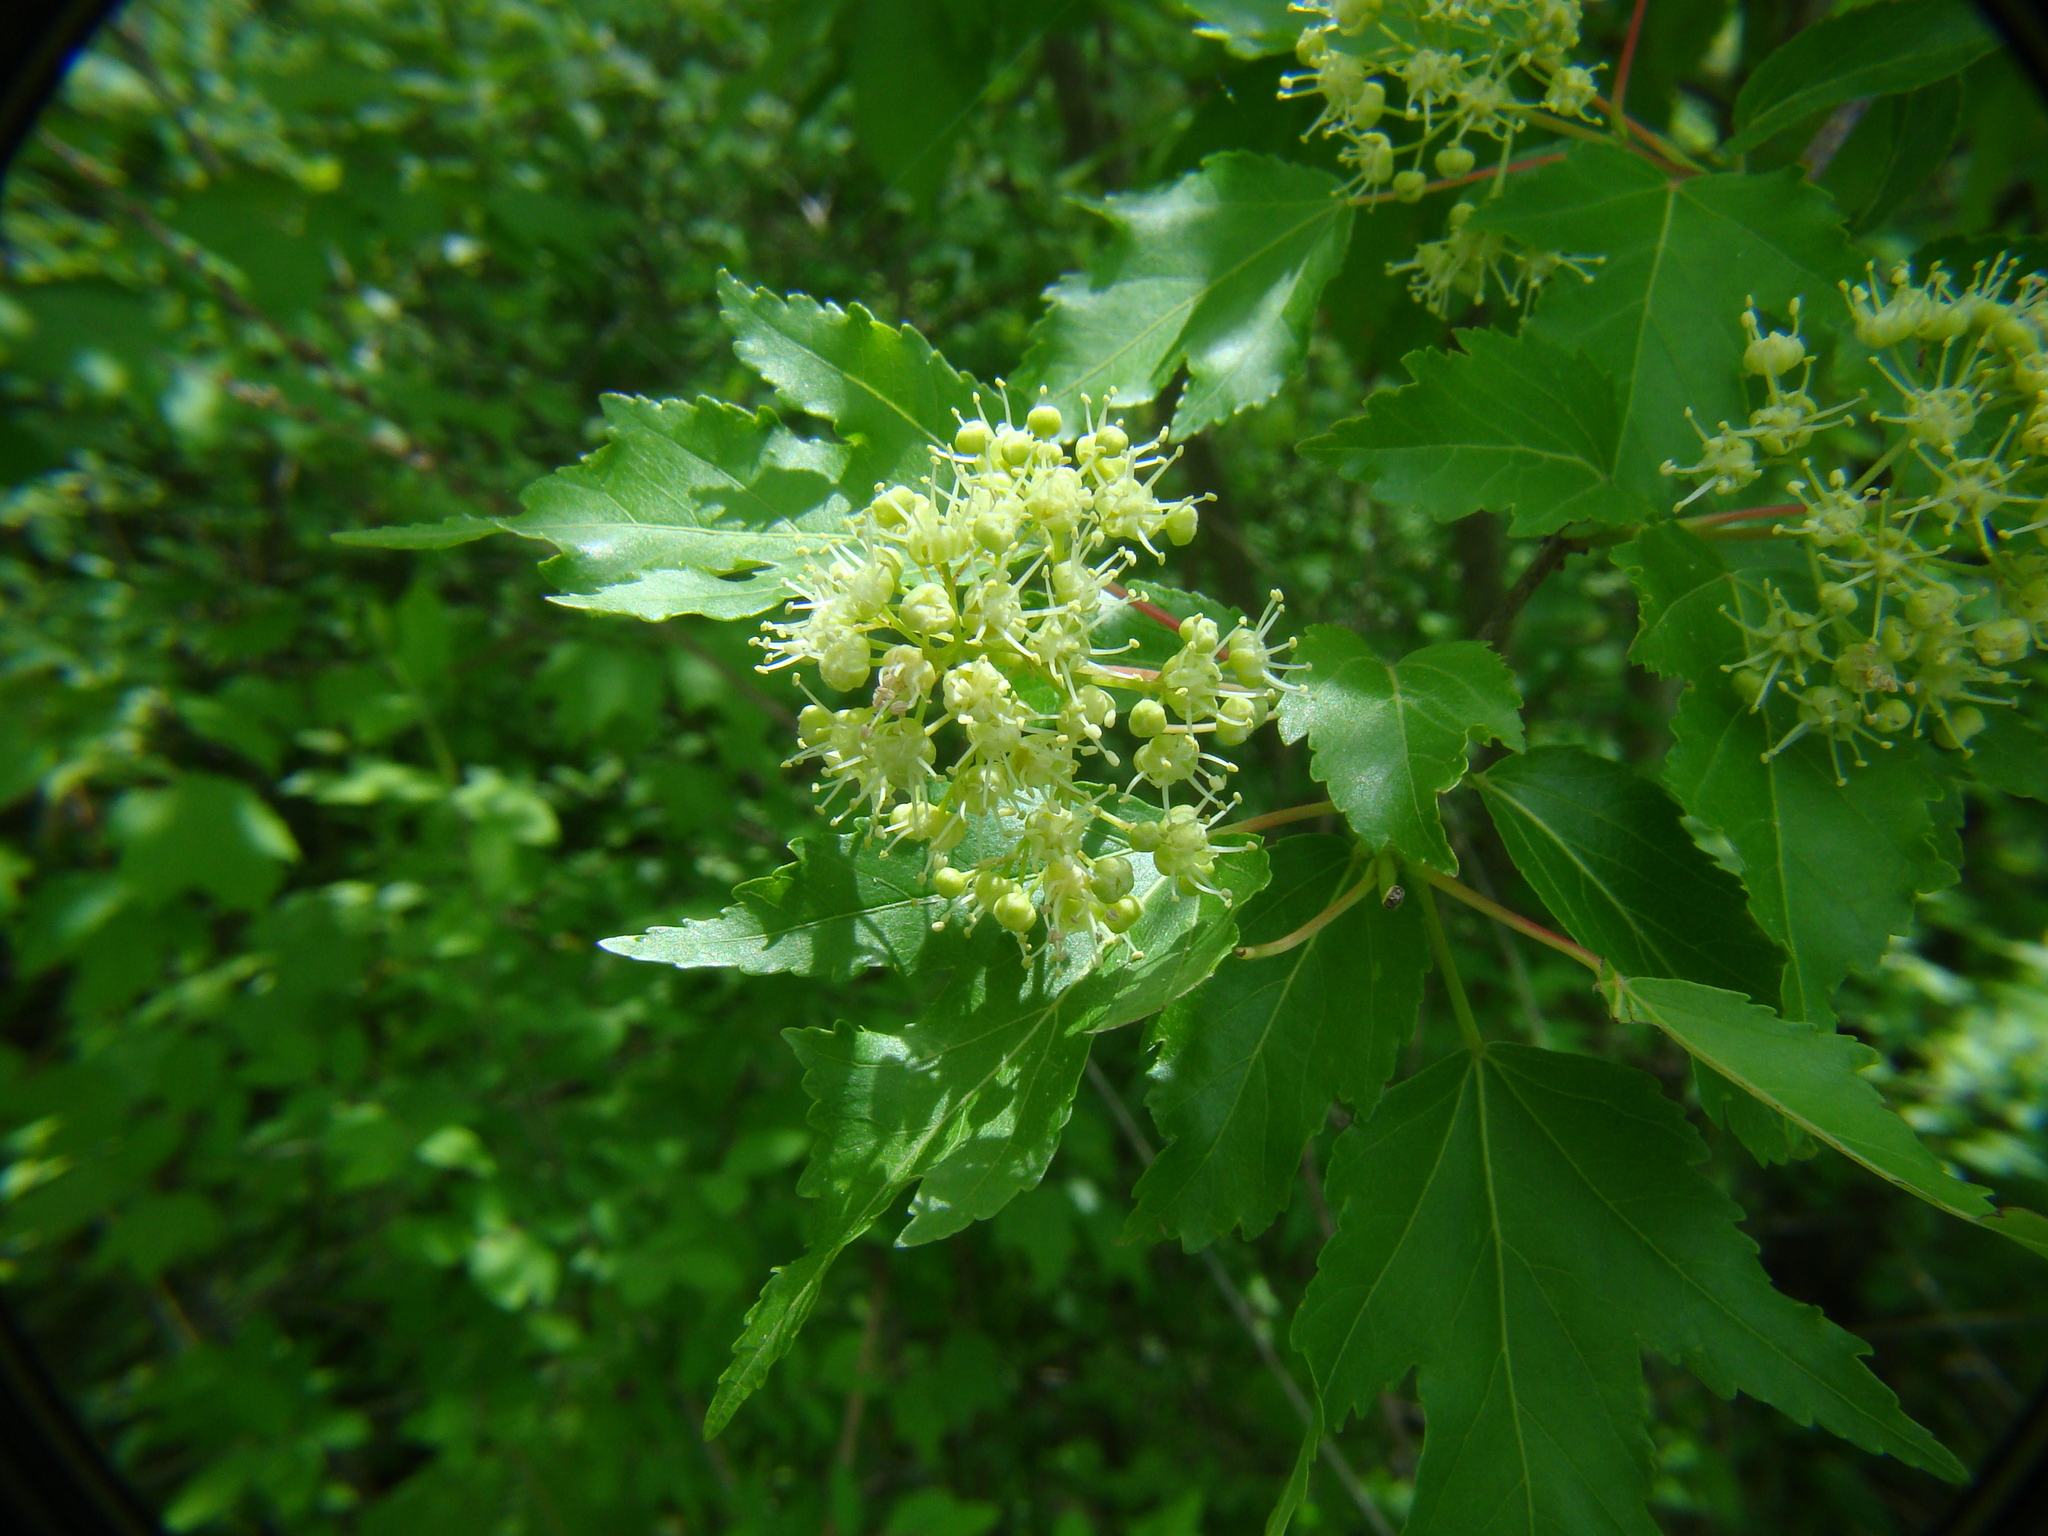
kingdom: Plantae
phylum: Tracheophyta
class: Magnoliopsida
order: Sapindales
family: Sapindaceae
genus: Acer
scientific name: Acer tataricum
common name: Tartar maple
